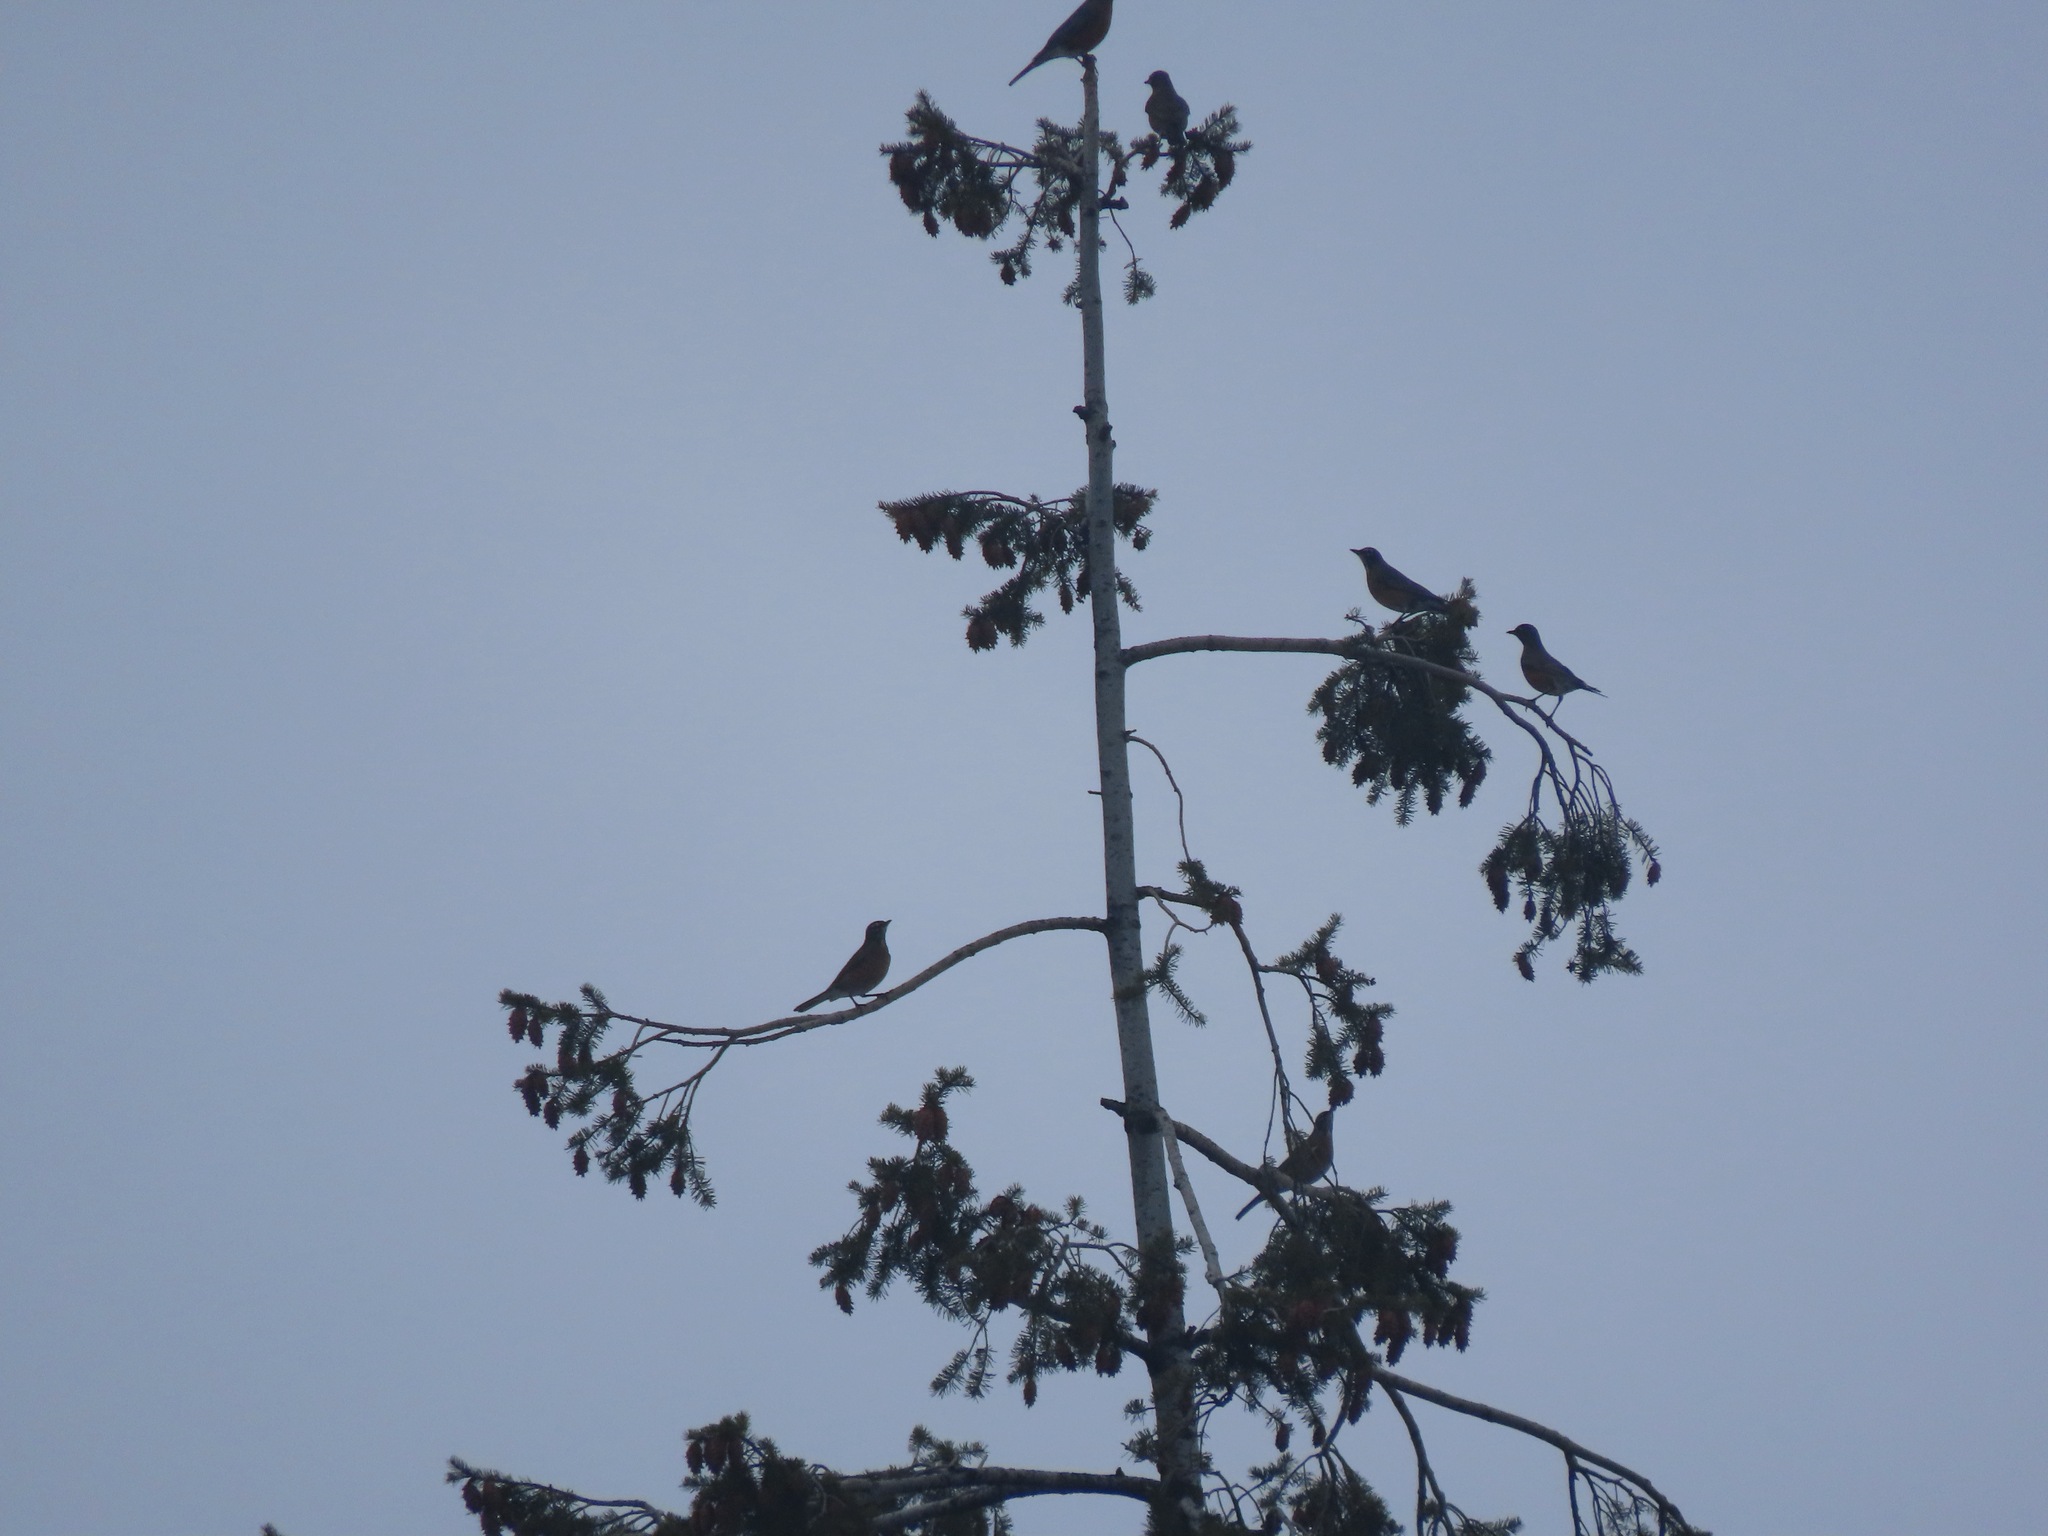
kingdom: Animalia
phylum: Chordata
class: Aves
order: Passeriformes
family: Turdidae
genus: Turdus
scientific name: Turdus migratorius
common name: American robin
